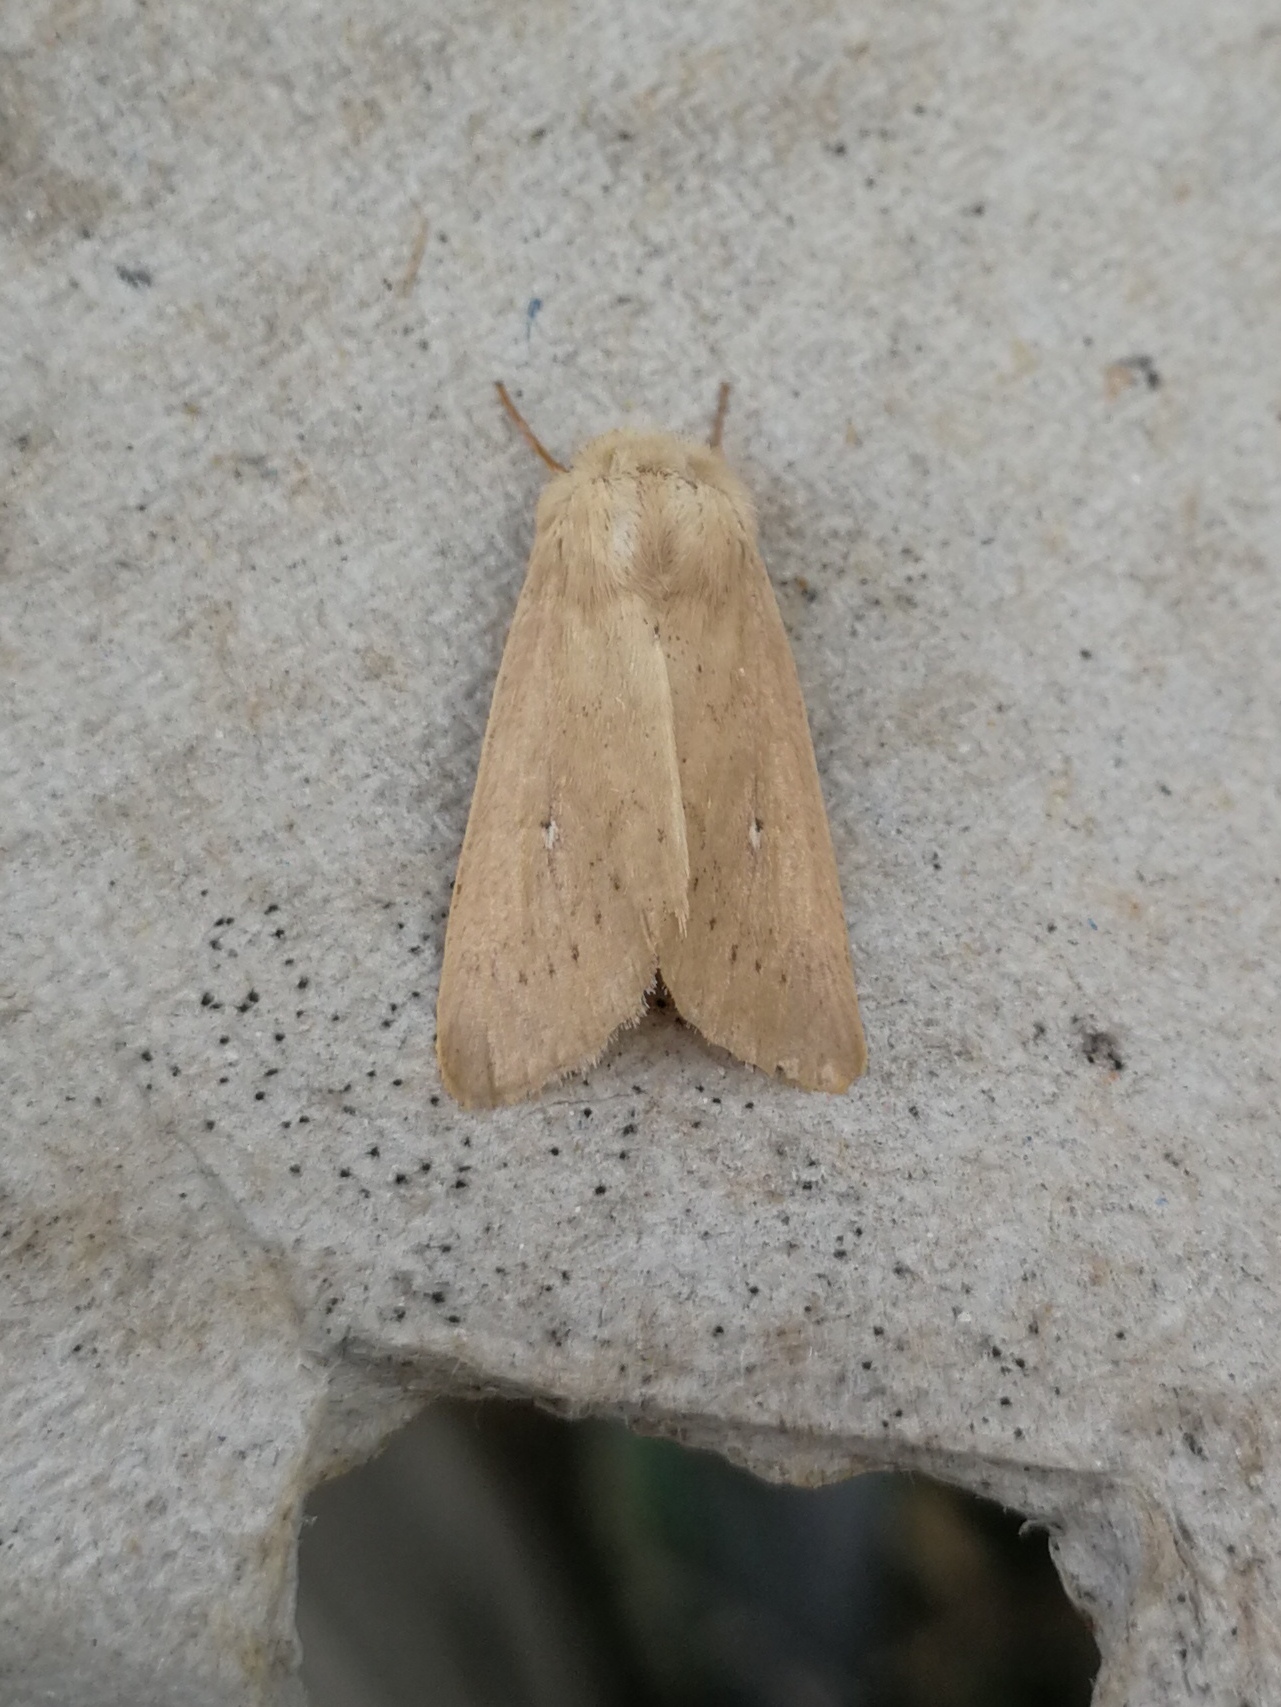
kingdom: Animalia
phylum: Arthropoda
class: Insecta
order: Lepidoptera
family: Noctuidae
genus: Mythimna
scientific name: Mythimna sicula
